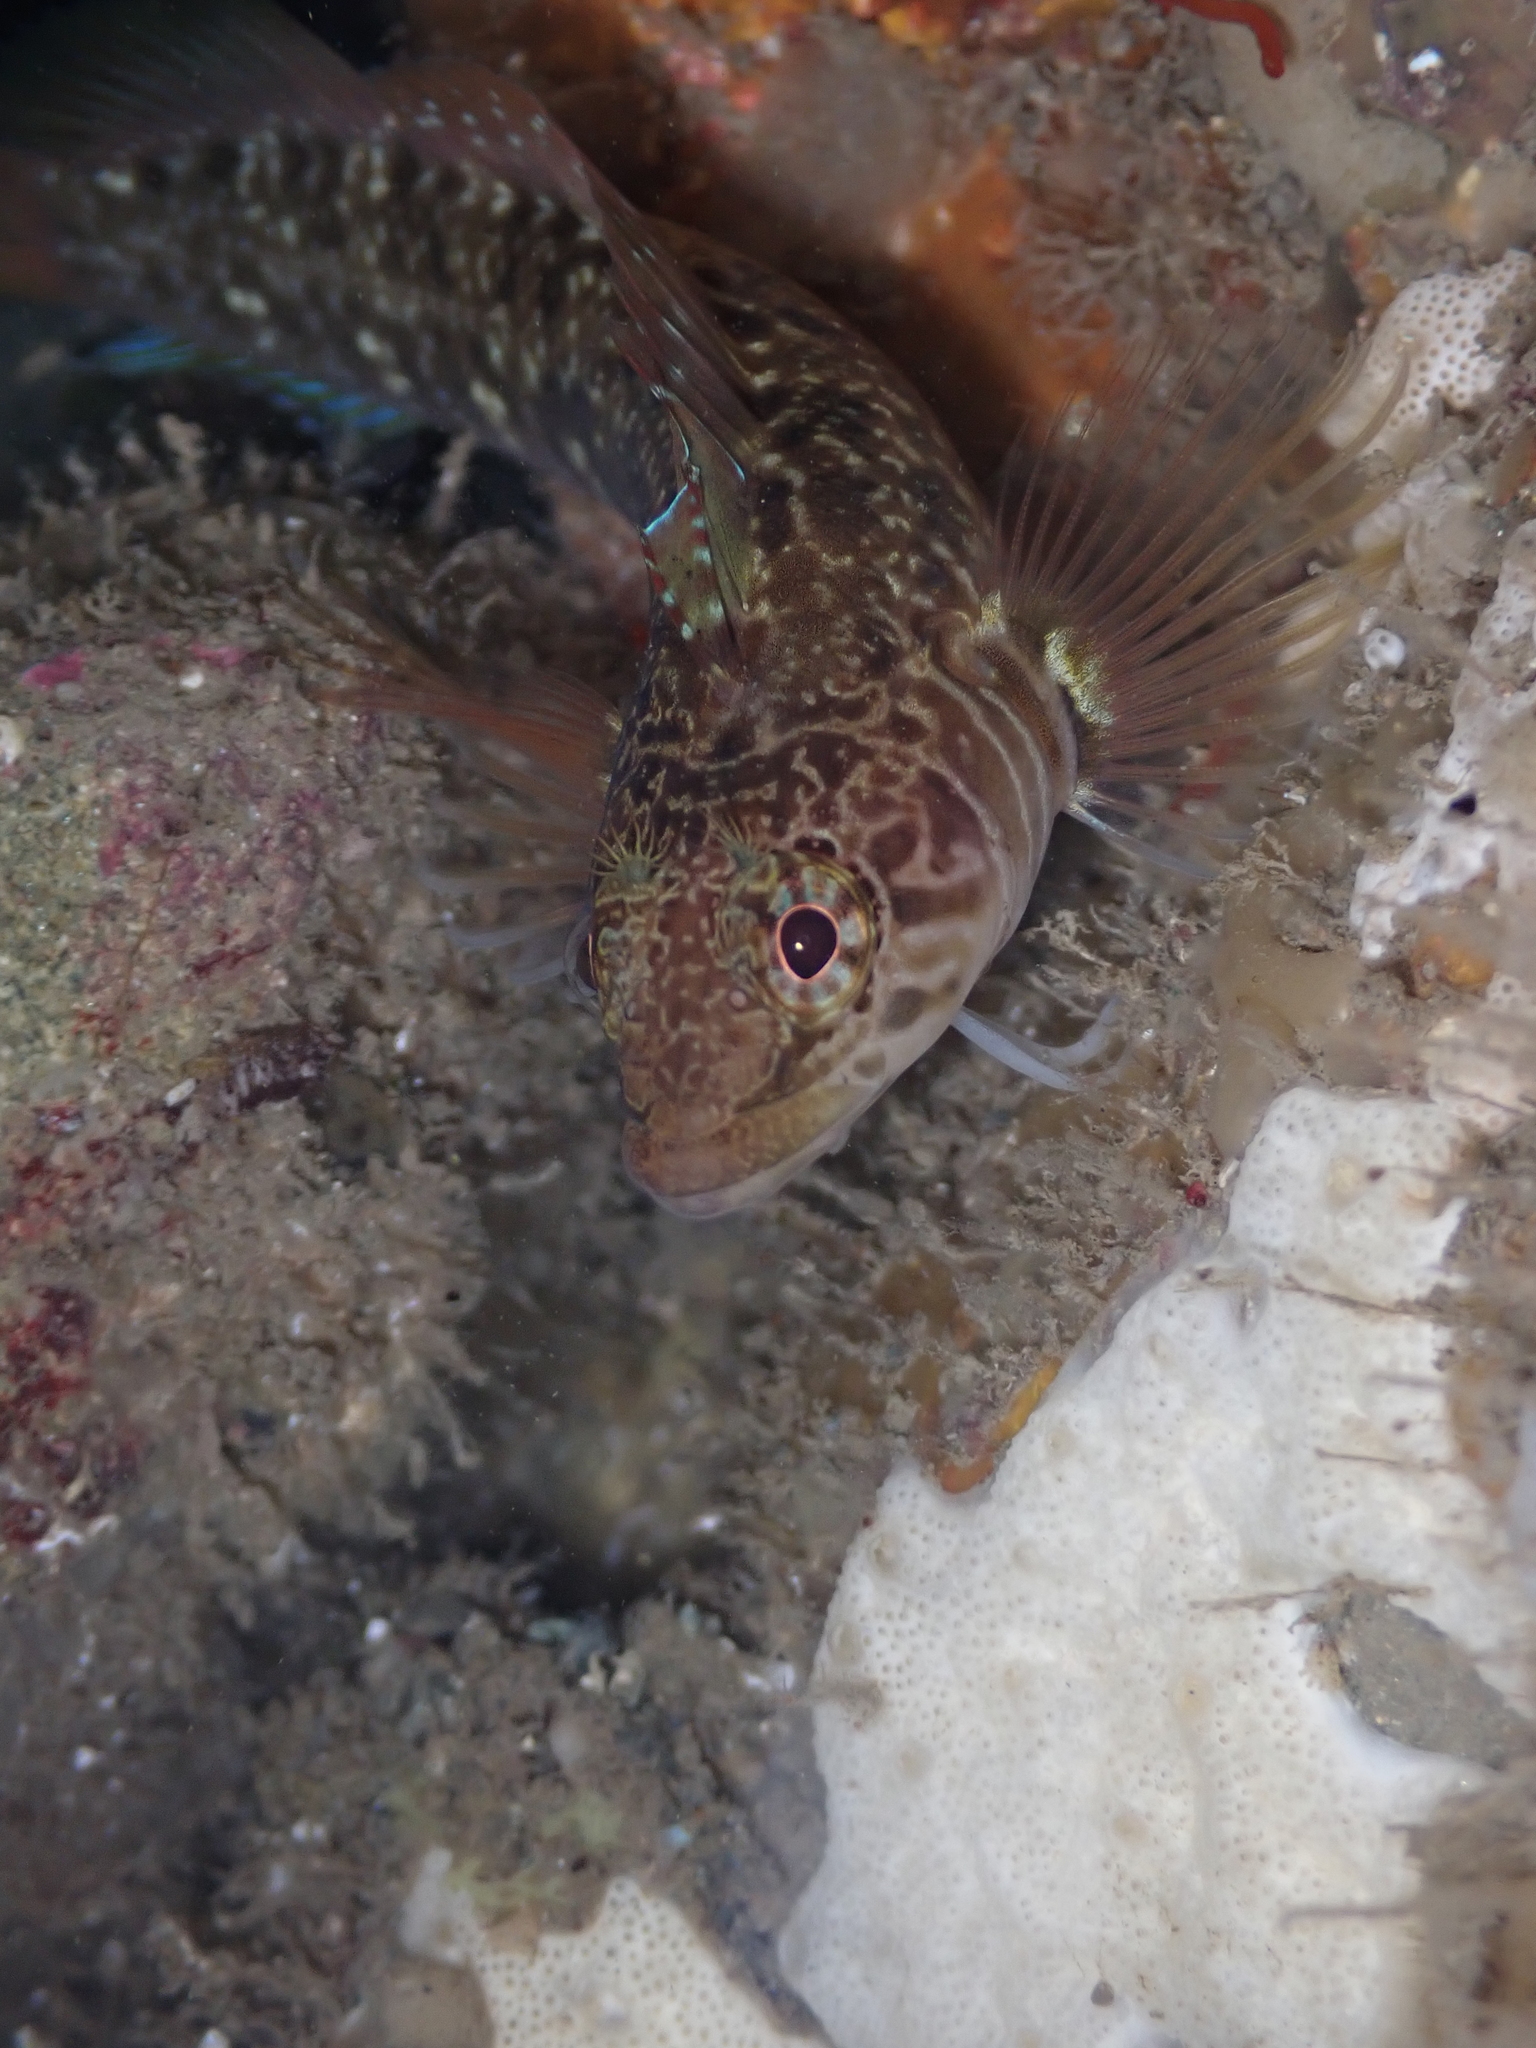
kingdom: Animalia
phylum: Chordata
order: Perciformes
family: Tripterygiidae
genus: Ruanoho
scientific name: Ruanoho decemdigitatus
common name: Longfinned triplefin
